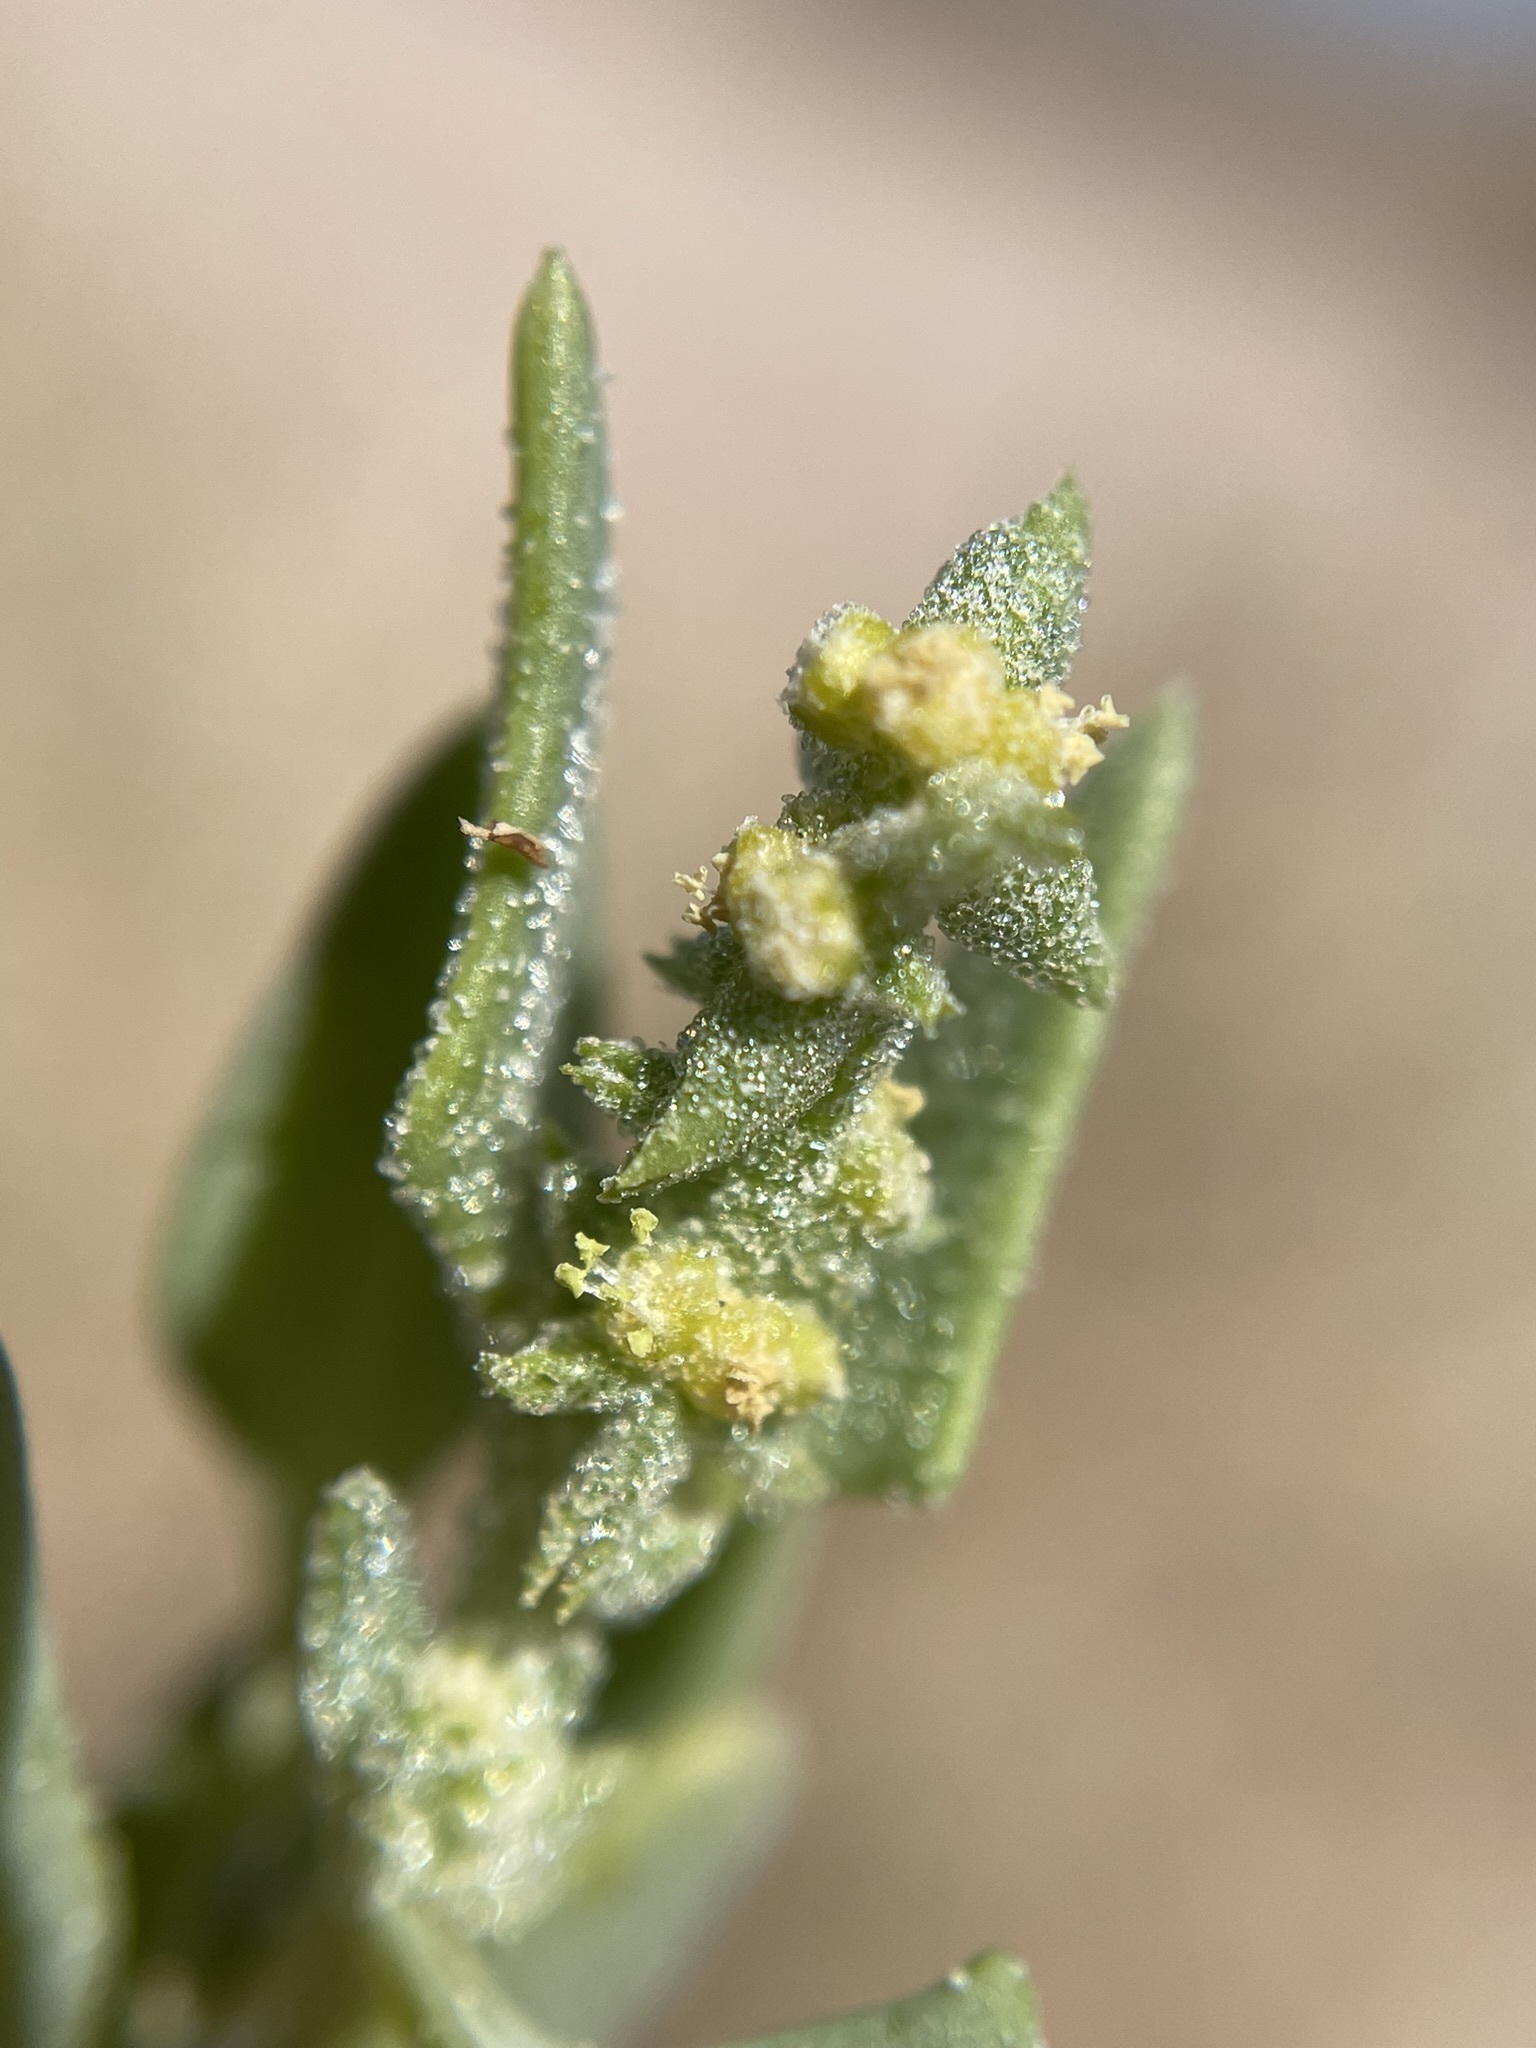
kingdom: Plantae
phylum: Tracheophyta
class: Magnoliopsida
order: Caryophyllales
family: Amaranthaceae
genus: Stutzia
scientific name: Stutzia covillei
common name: Coville's orach
